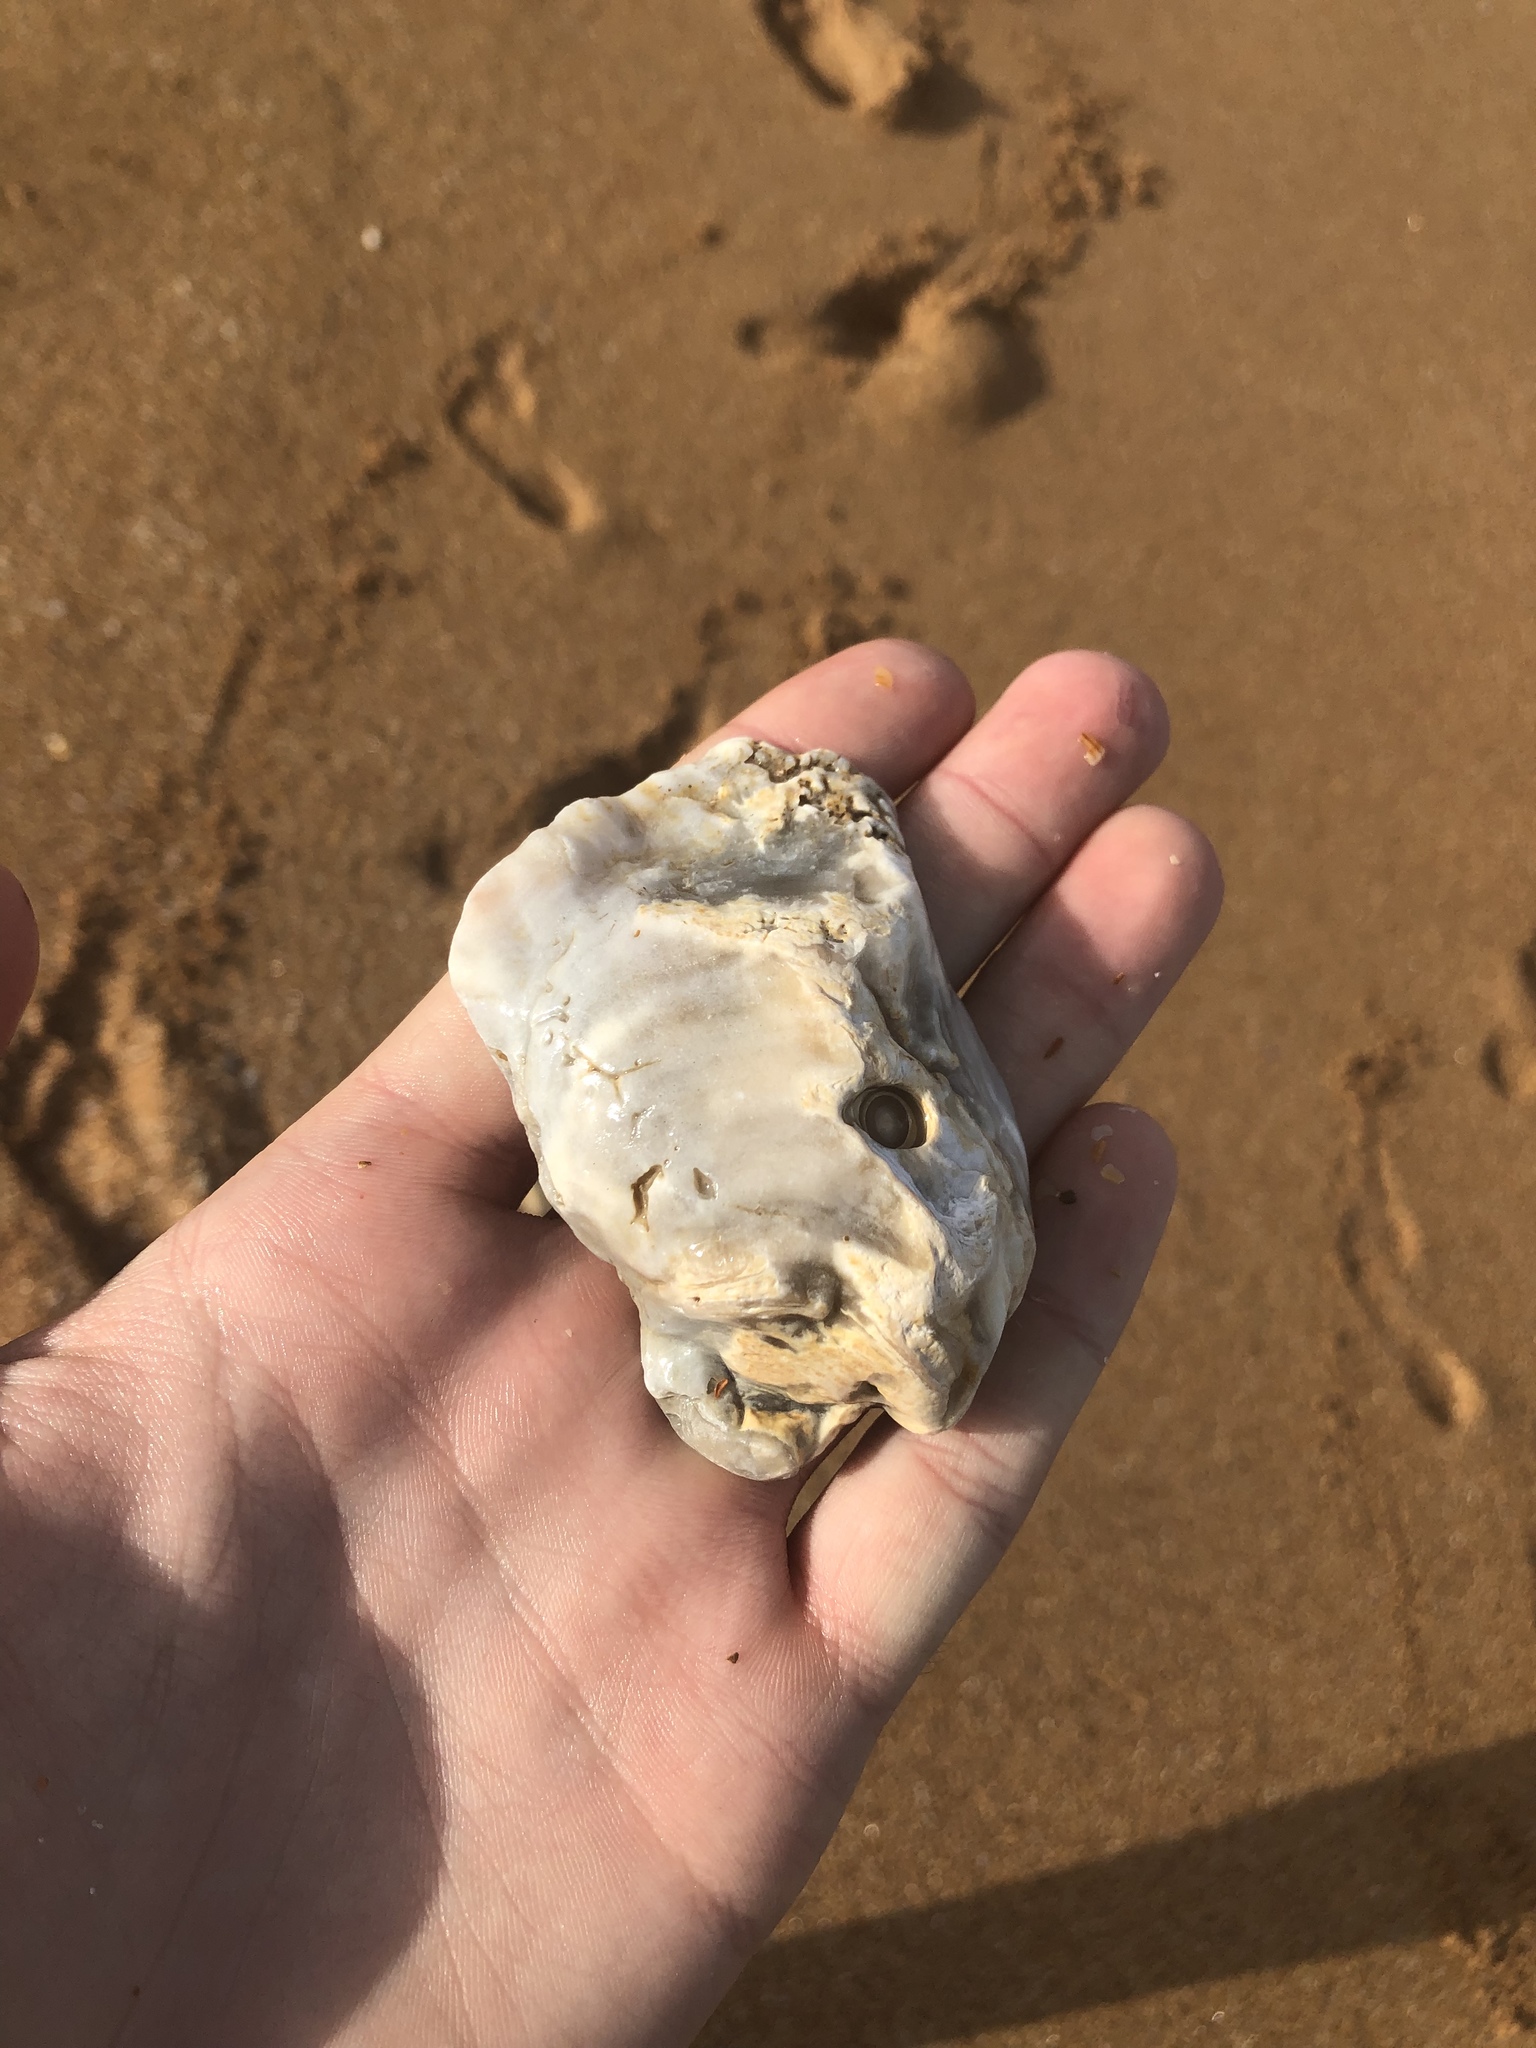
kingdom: Animalia
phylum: Mollusca
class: Bivalvia
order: Ostreida
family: Ostreidae
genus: Crassostrea
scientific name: Crassostrea virginica
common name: American oyster
